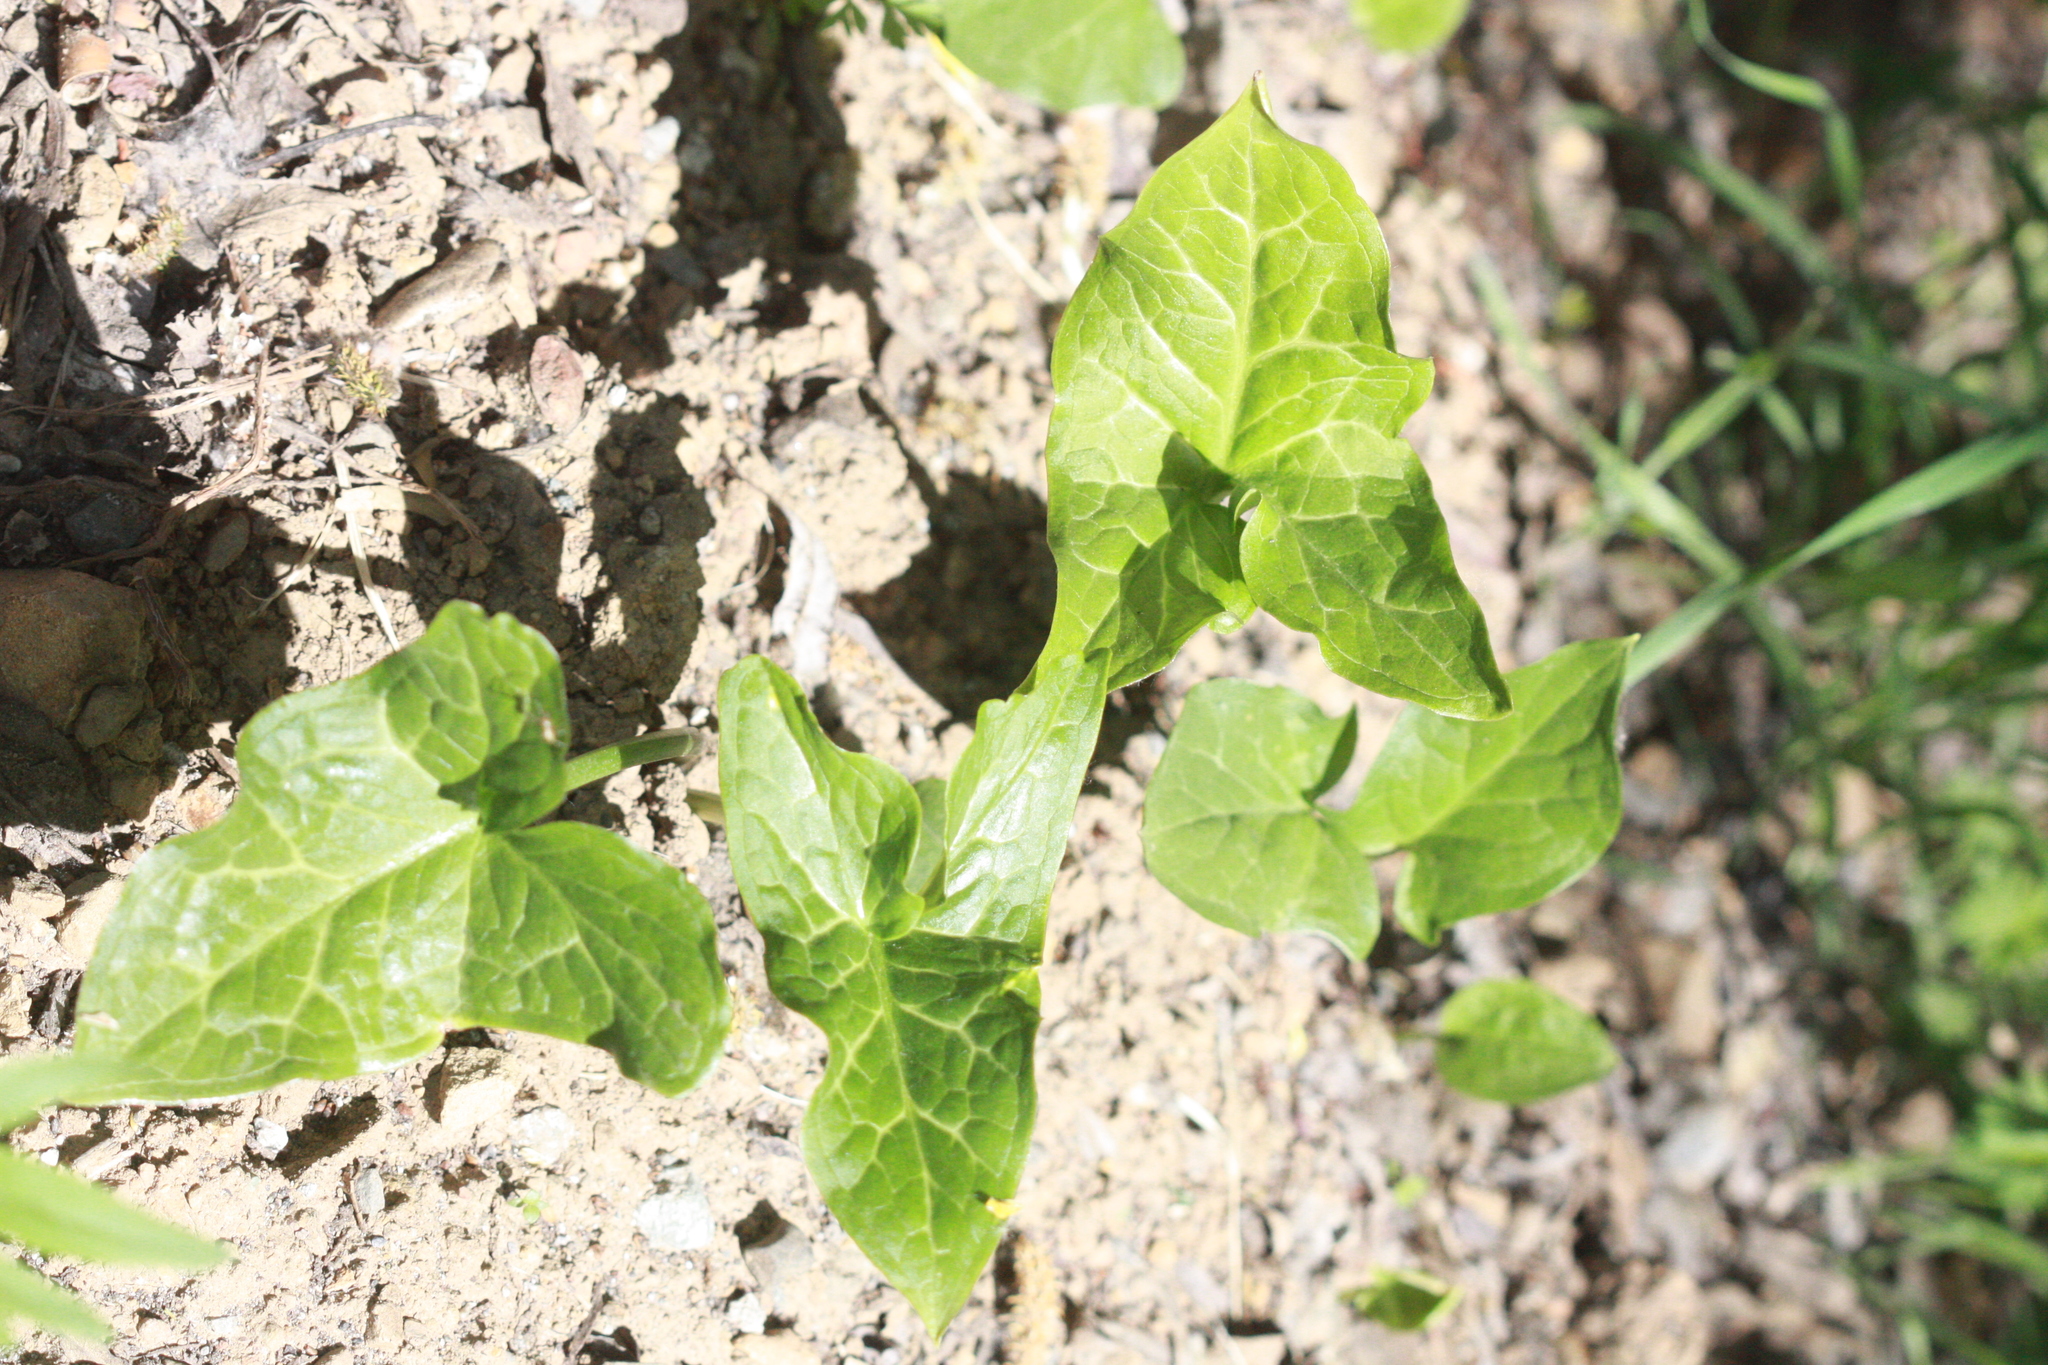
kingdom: Plantae
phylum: Tracheophyta
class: Liliopsida
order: Alismatales
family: Araceae
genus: Arum
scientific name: Arum italicum
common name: Italian lords-and-ladies
